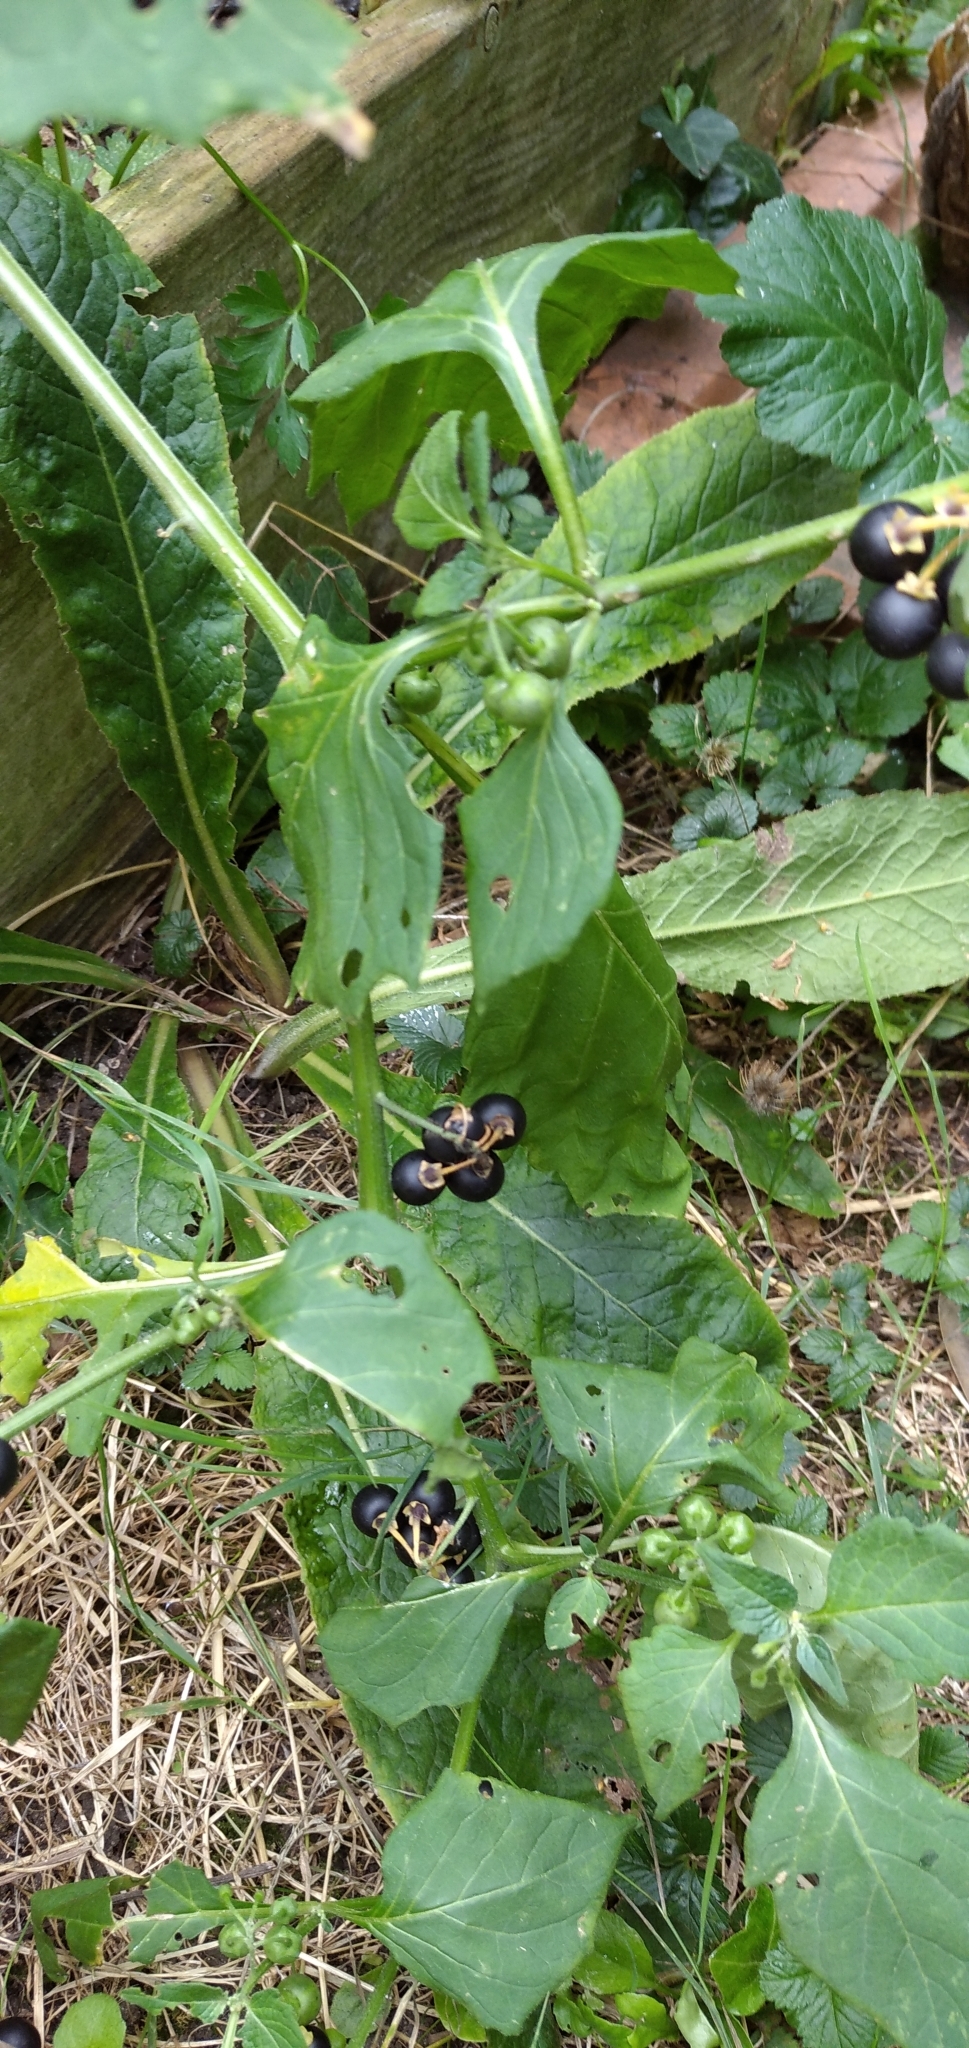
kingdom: Plantae
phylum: Tracheophyta
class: Magnoliopsida
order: Solanales
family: Solanaceae
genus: Solanum
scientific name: Solanum nigrum
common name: Black nightshade
